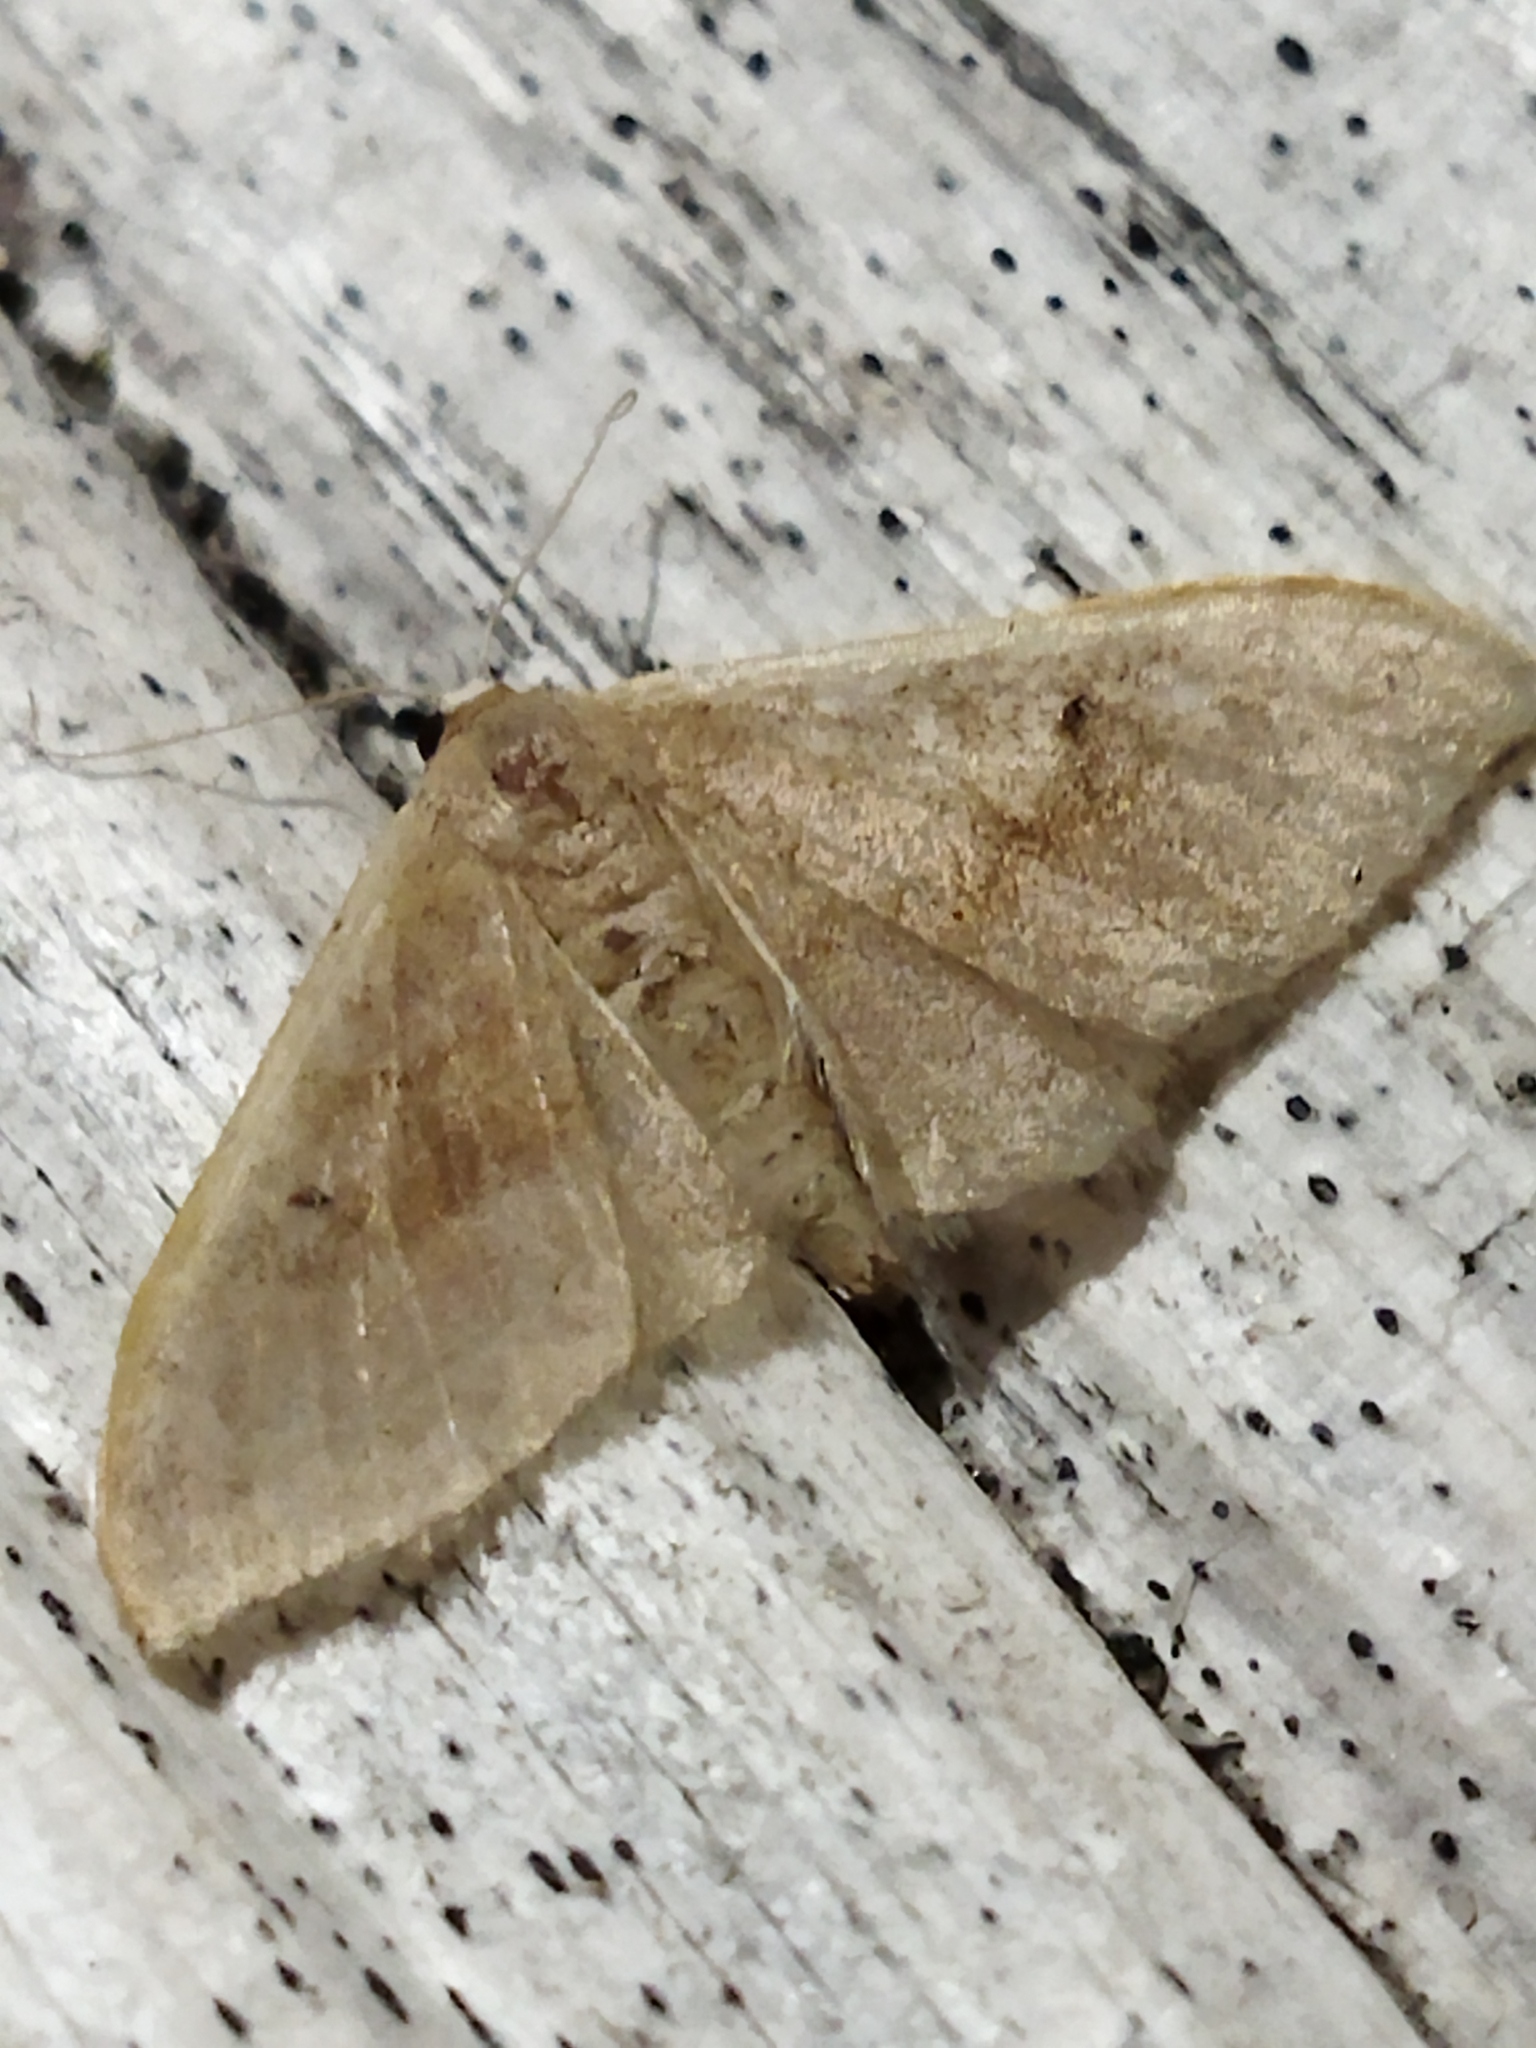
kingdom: Animalia
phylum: Arthropoda
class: Insecta
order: Lepidoptera
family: Geometridae
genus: Idaea
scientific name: Idaea degeneraria
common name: Portland ribbon wave
